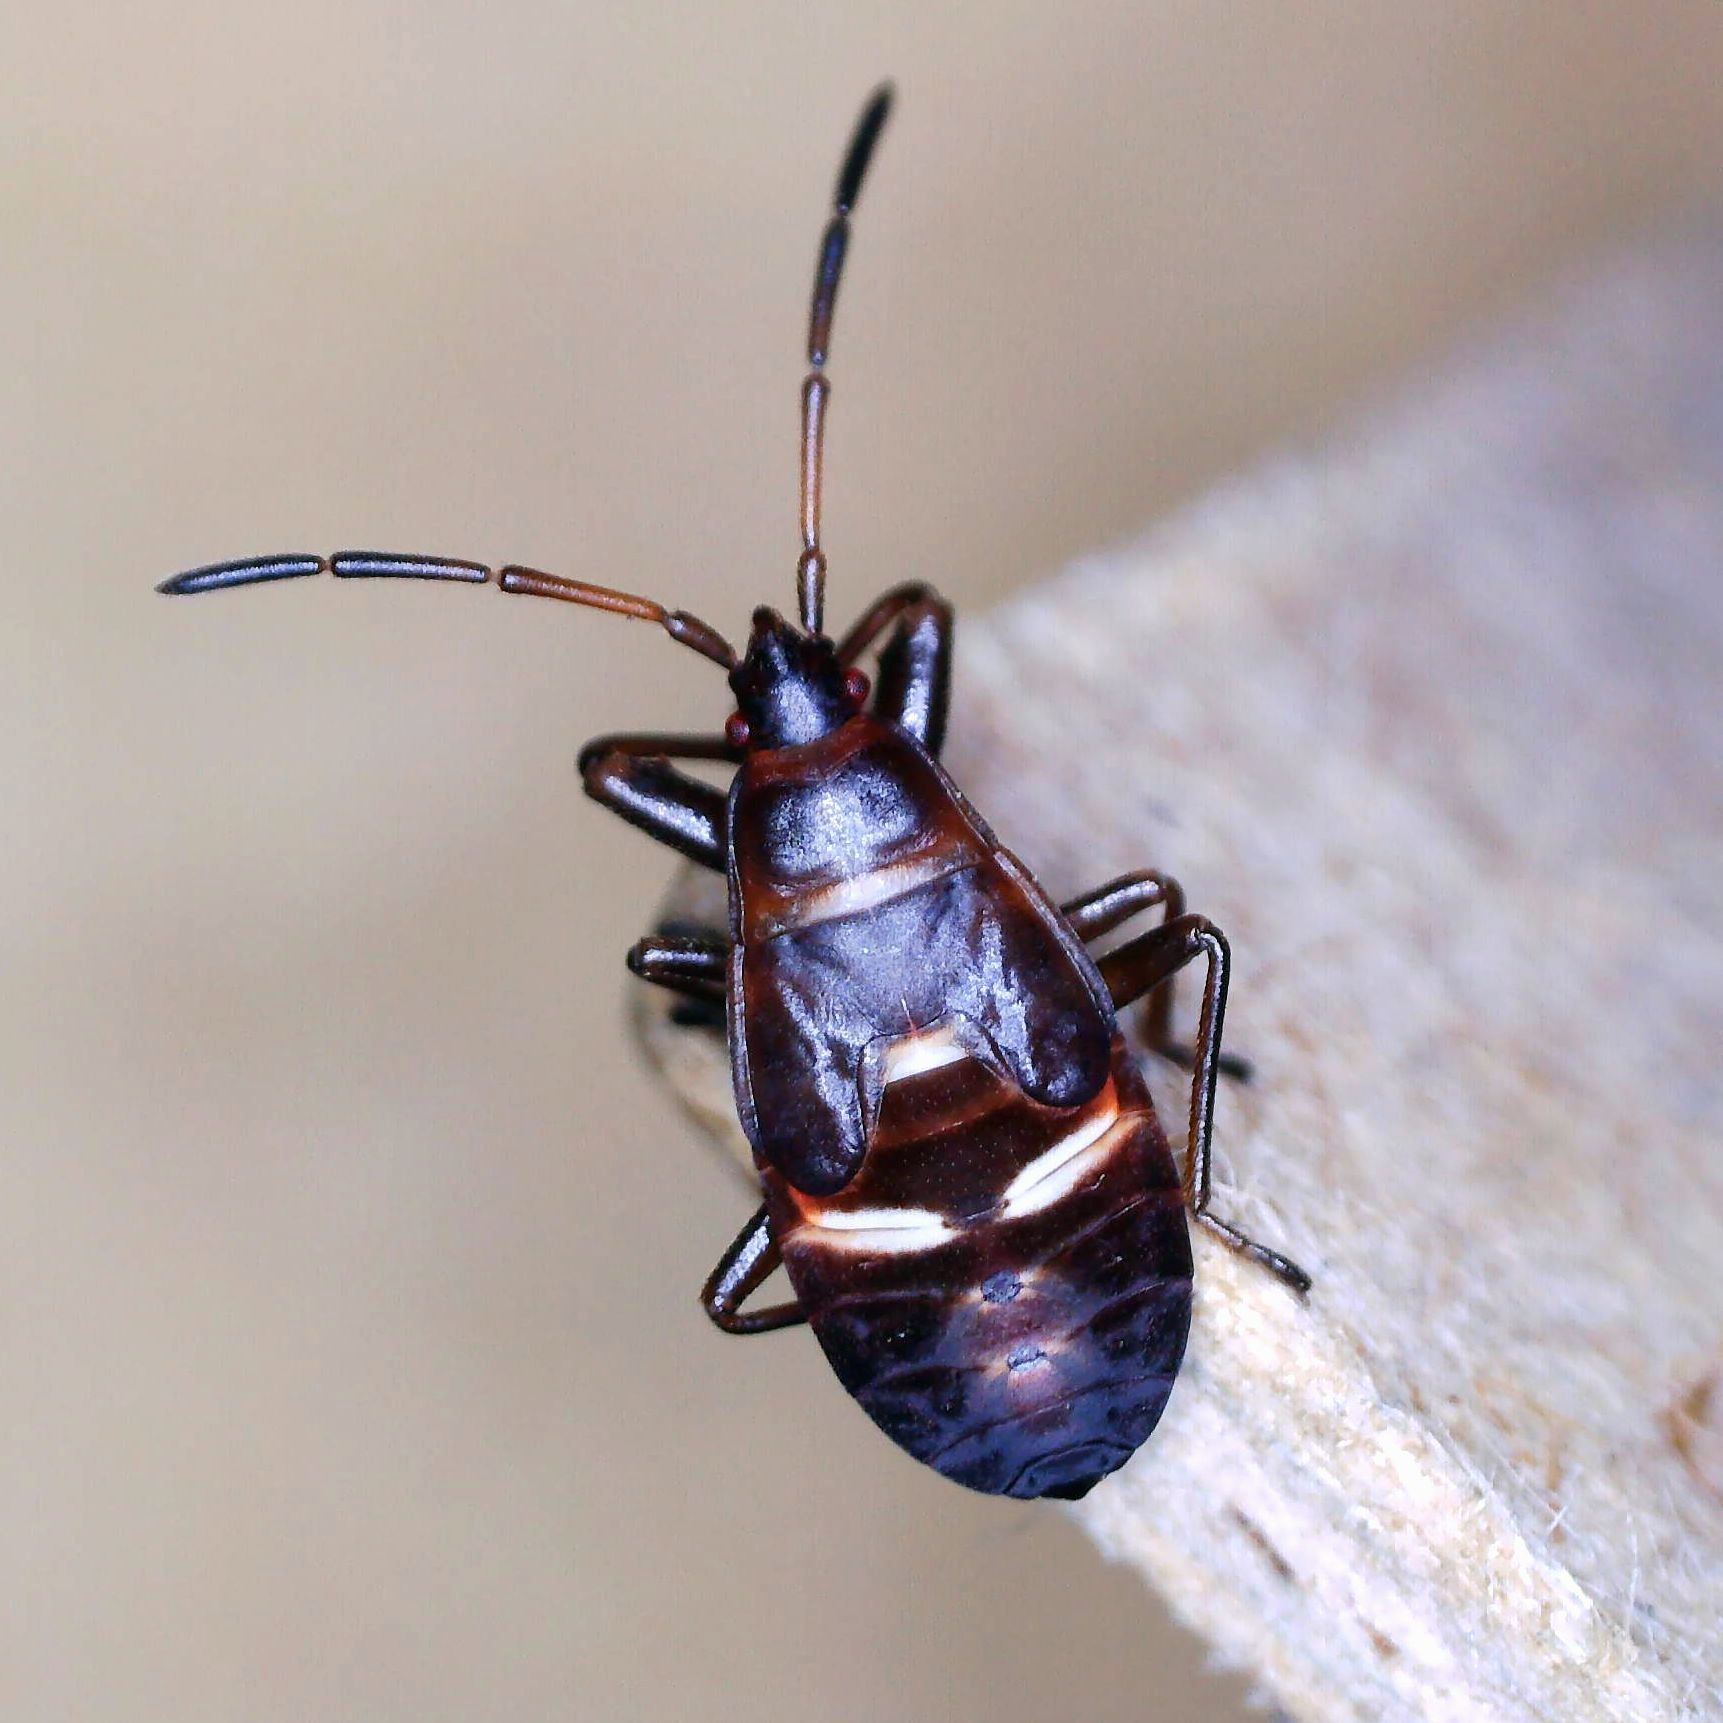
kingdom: Animalia
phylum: Arthropoda
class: Insecta
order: Hemiptera
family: Rhyparochromidae
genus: Gastrodes
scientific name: Gastrodes grossipes
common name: Pine cone bug
